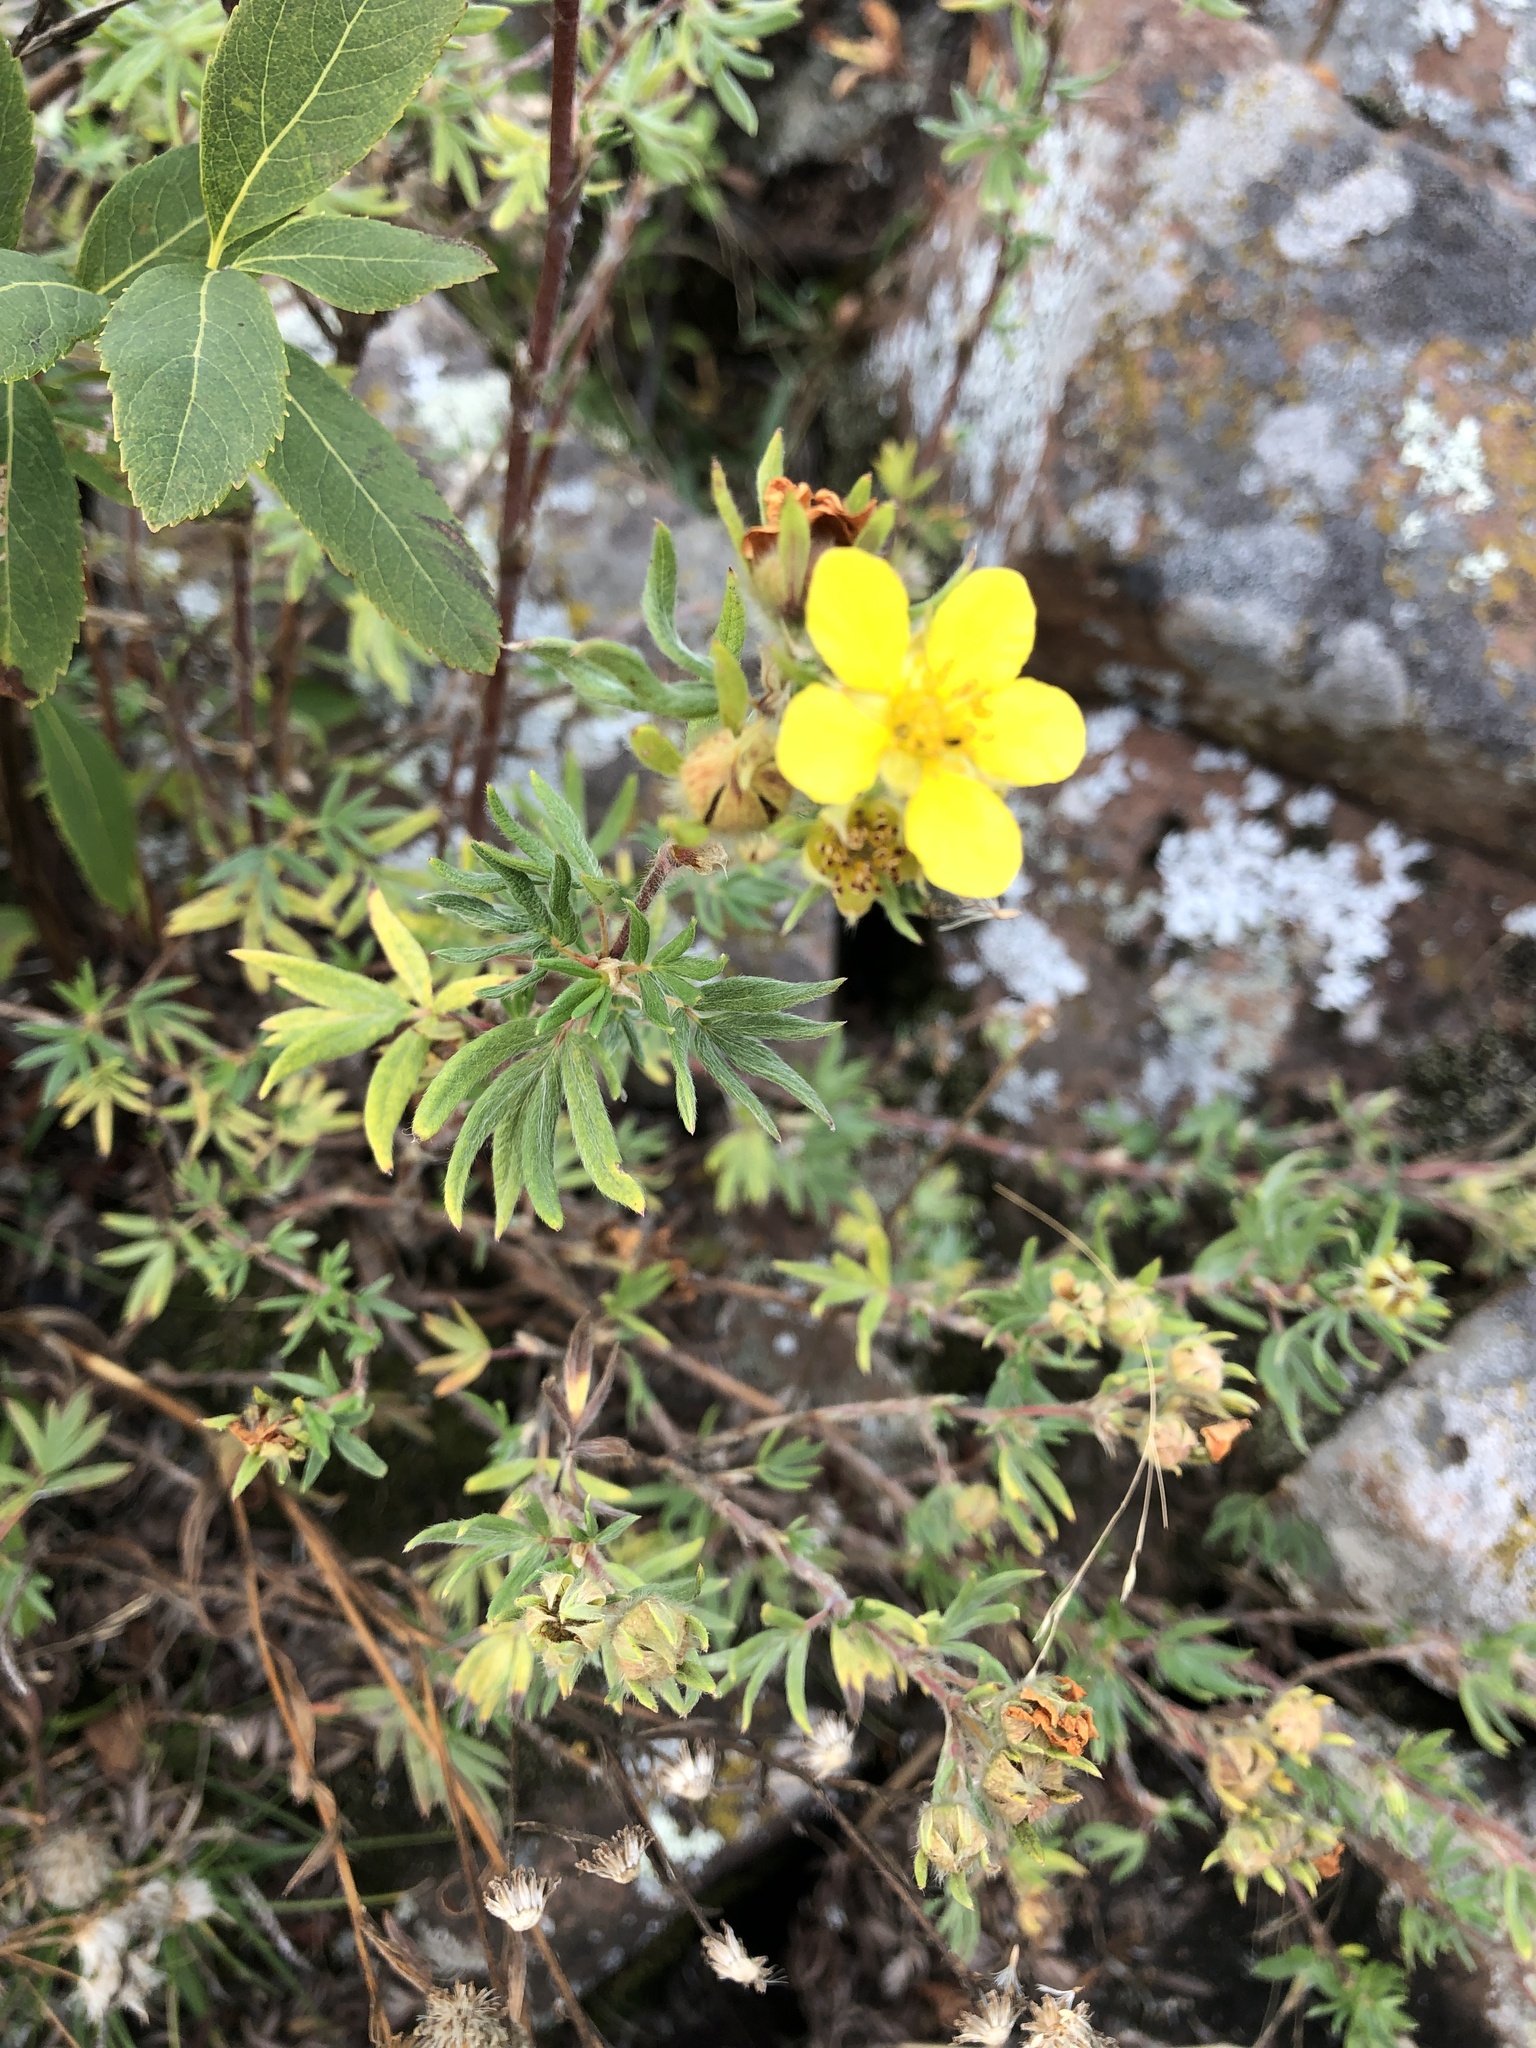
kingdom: Plantae
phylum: Tracheophyta
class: Magnoliopsida
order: Rosales
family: Rosaceae
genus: Dasiphora
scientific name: Dasiphora fruticosa
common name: Shrubby cinquefoil
